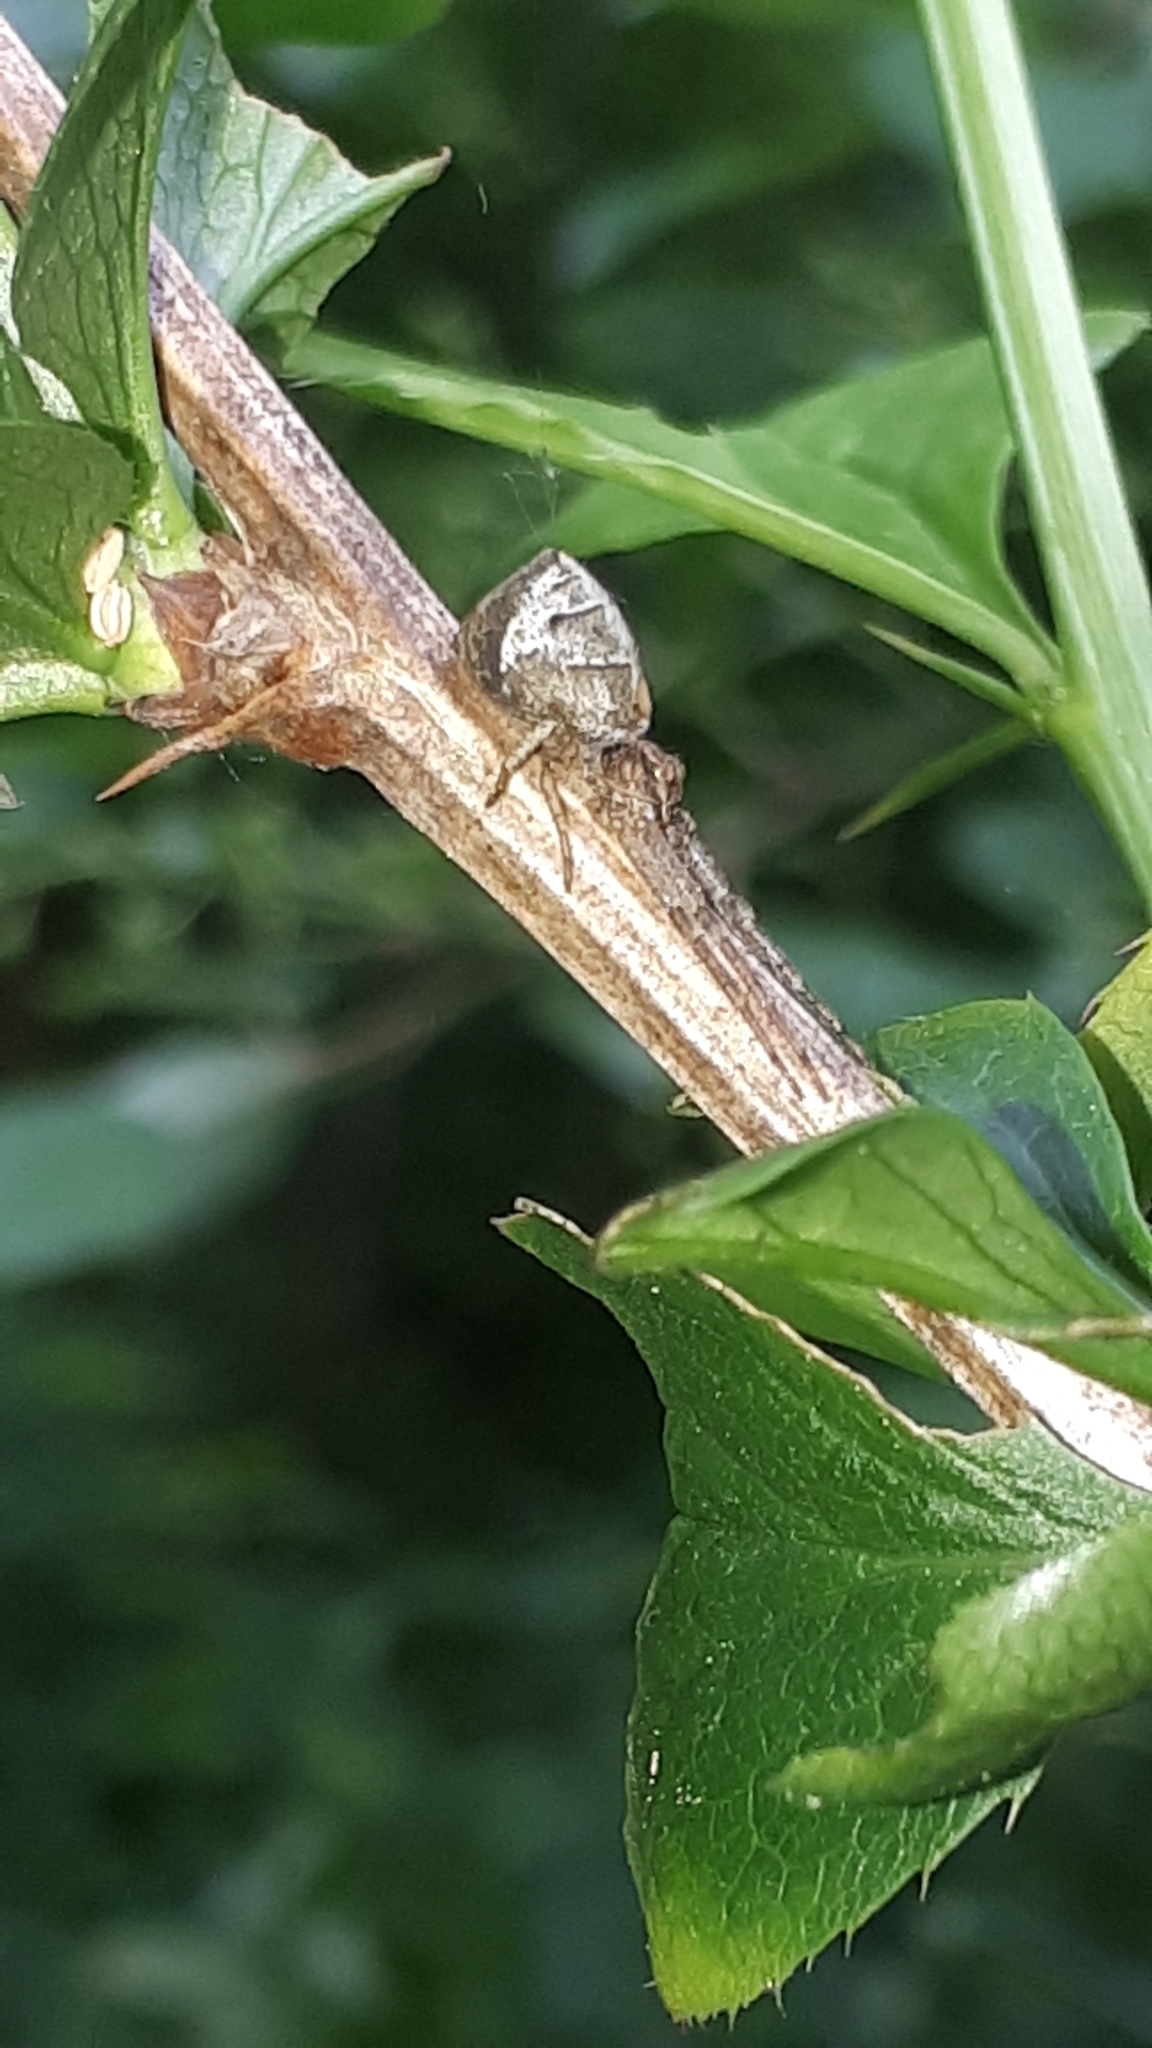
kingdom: Animalia
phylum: Arthropoda
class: Arachnida
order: Araneae
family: Thomisidae
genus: Tmarus
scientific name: Tmarus piger
